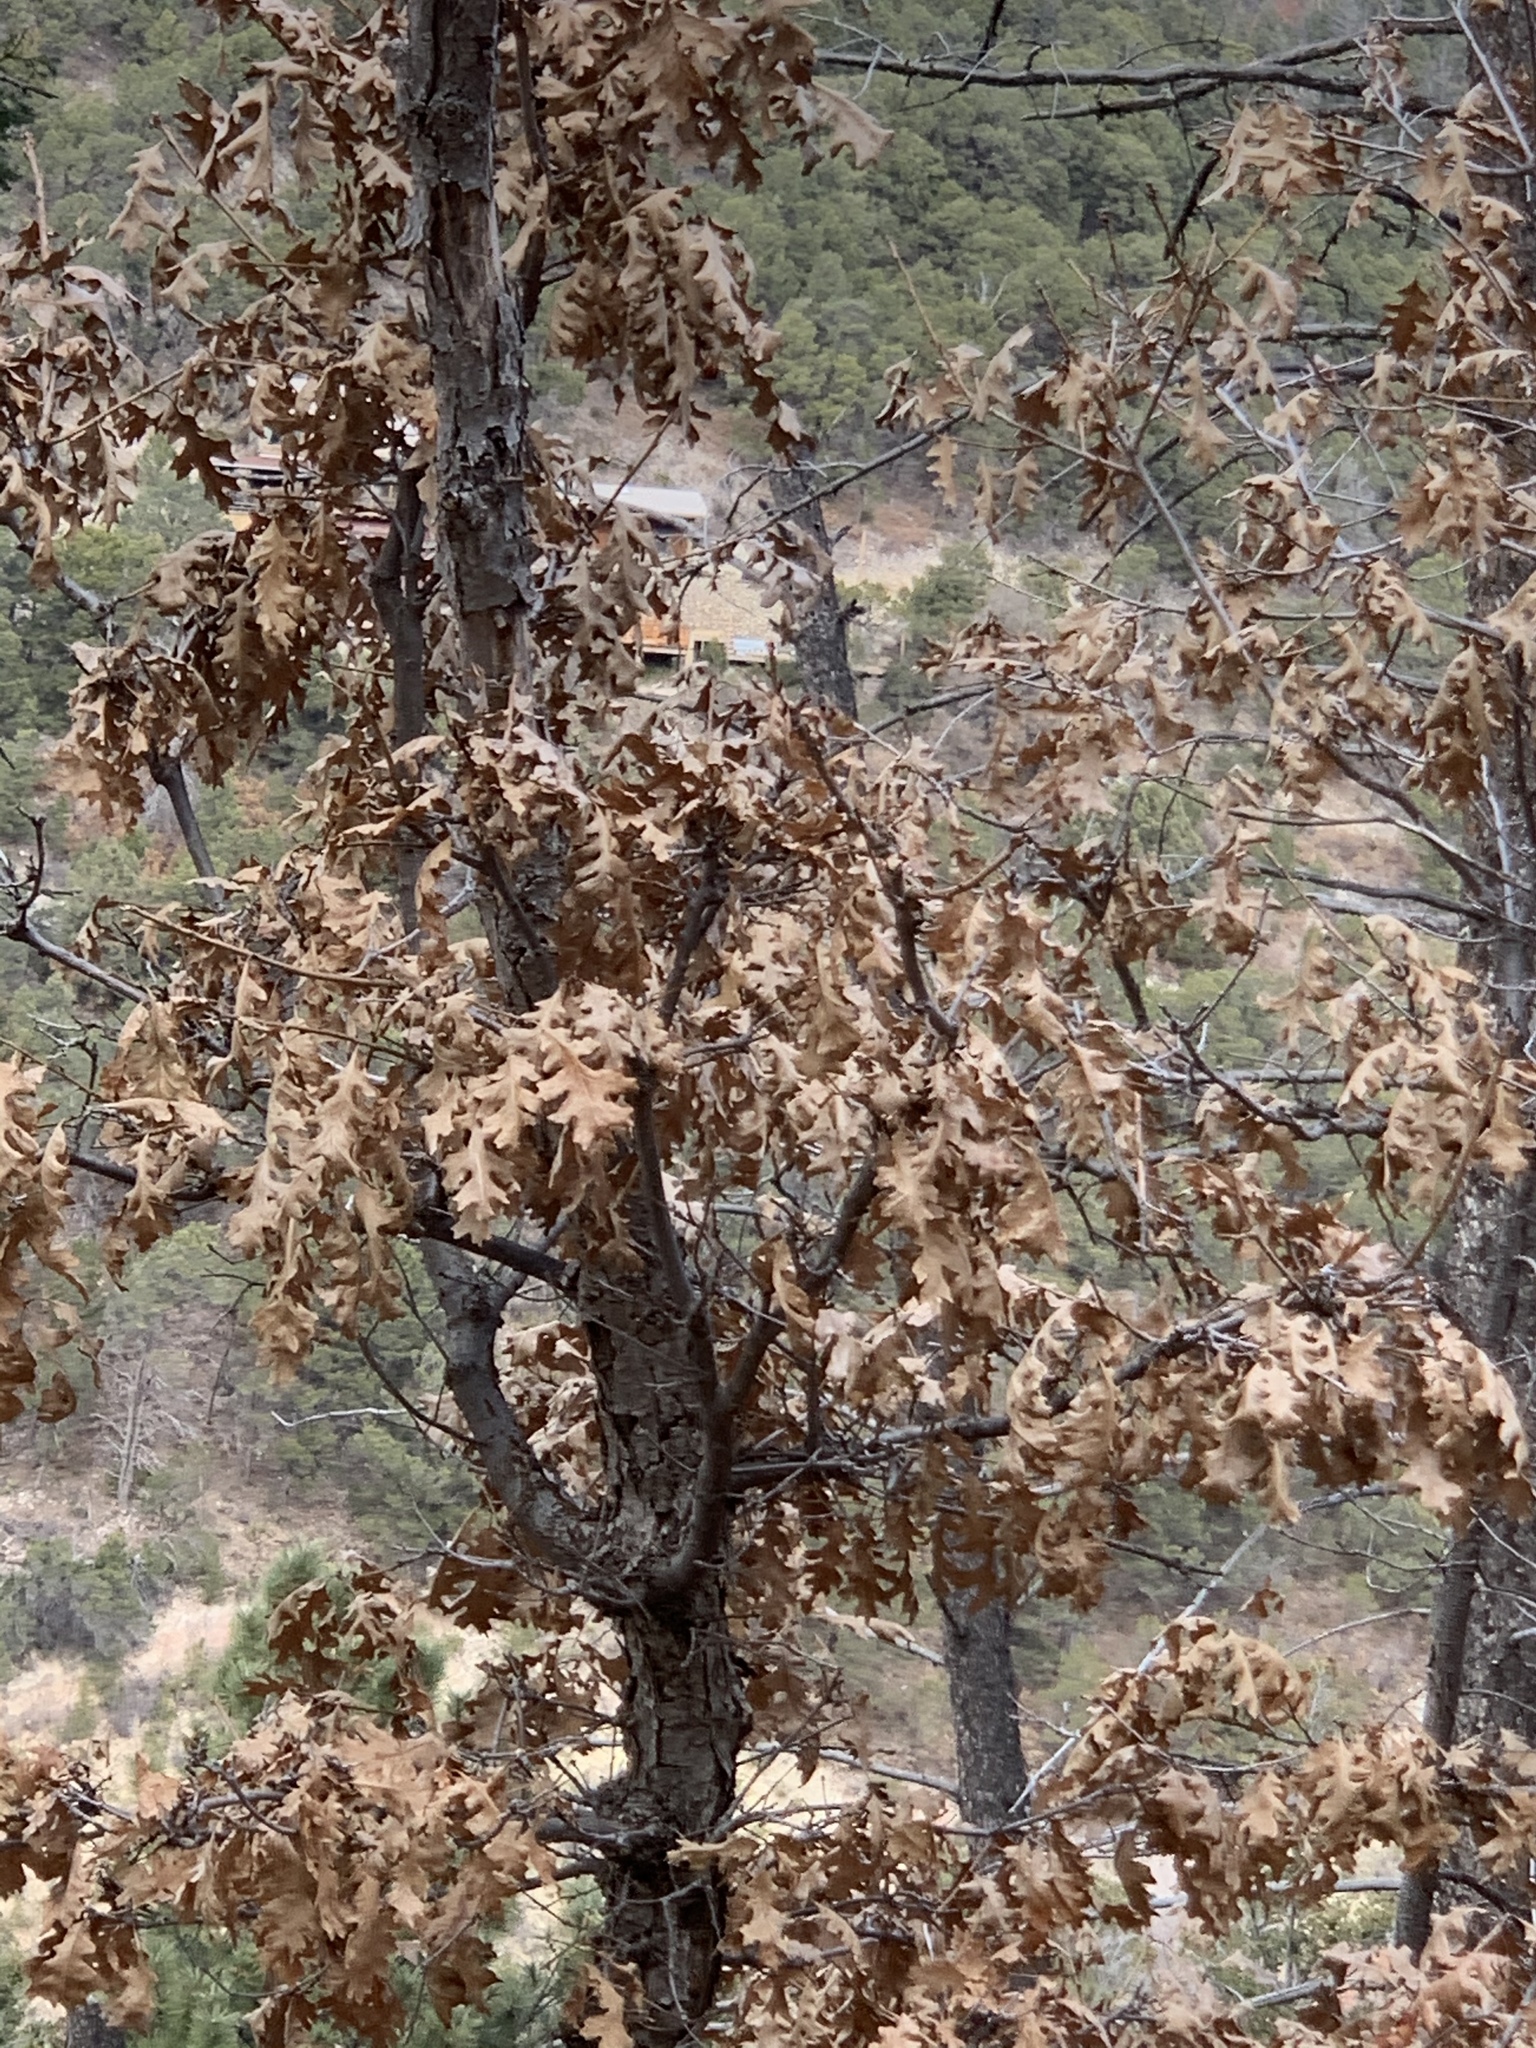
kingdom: Plantae
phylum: Tracheophyta
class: Magnoliopsida
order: Fagales
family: Fagaceae
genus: Quercus
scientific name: Quercus gambelii
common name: Gambel oak
